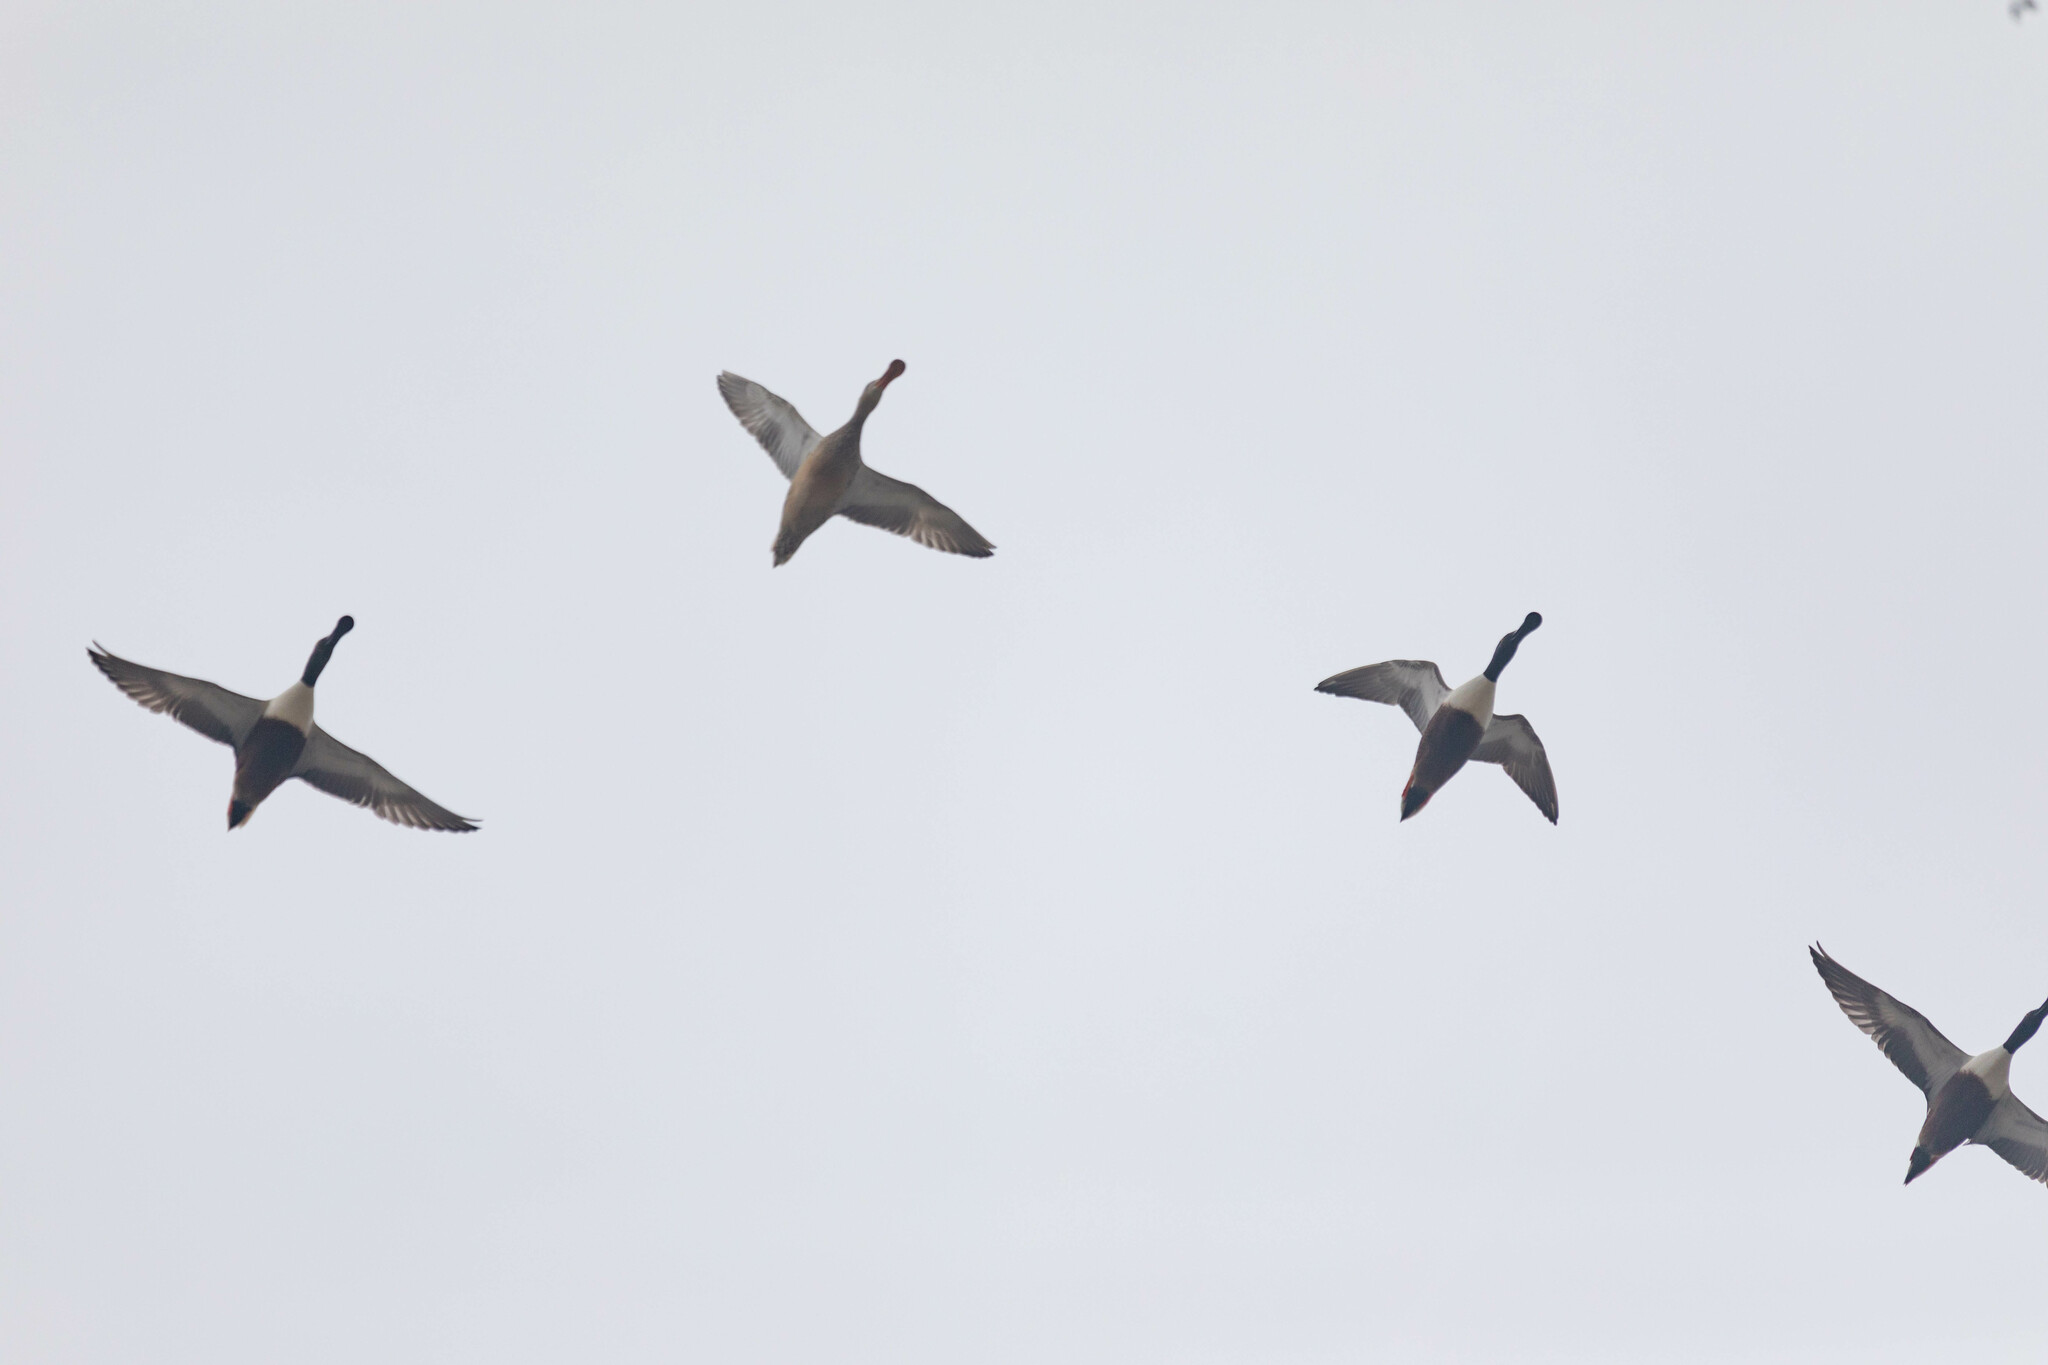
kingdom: Animalia
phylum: Chordata
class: Aves
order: Anseriformes
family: Anatidae
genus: Spatula
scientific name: Spatula clypeata
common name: Northern shoveler
